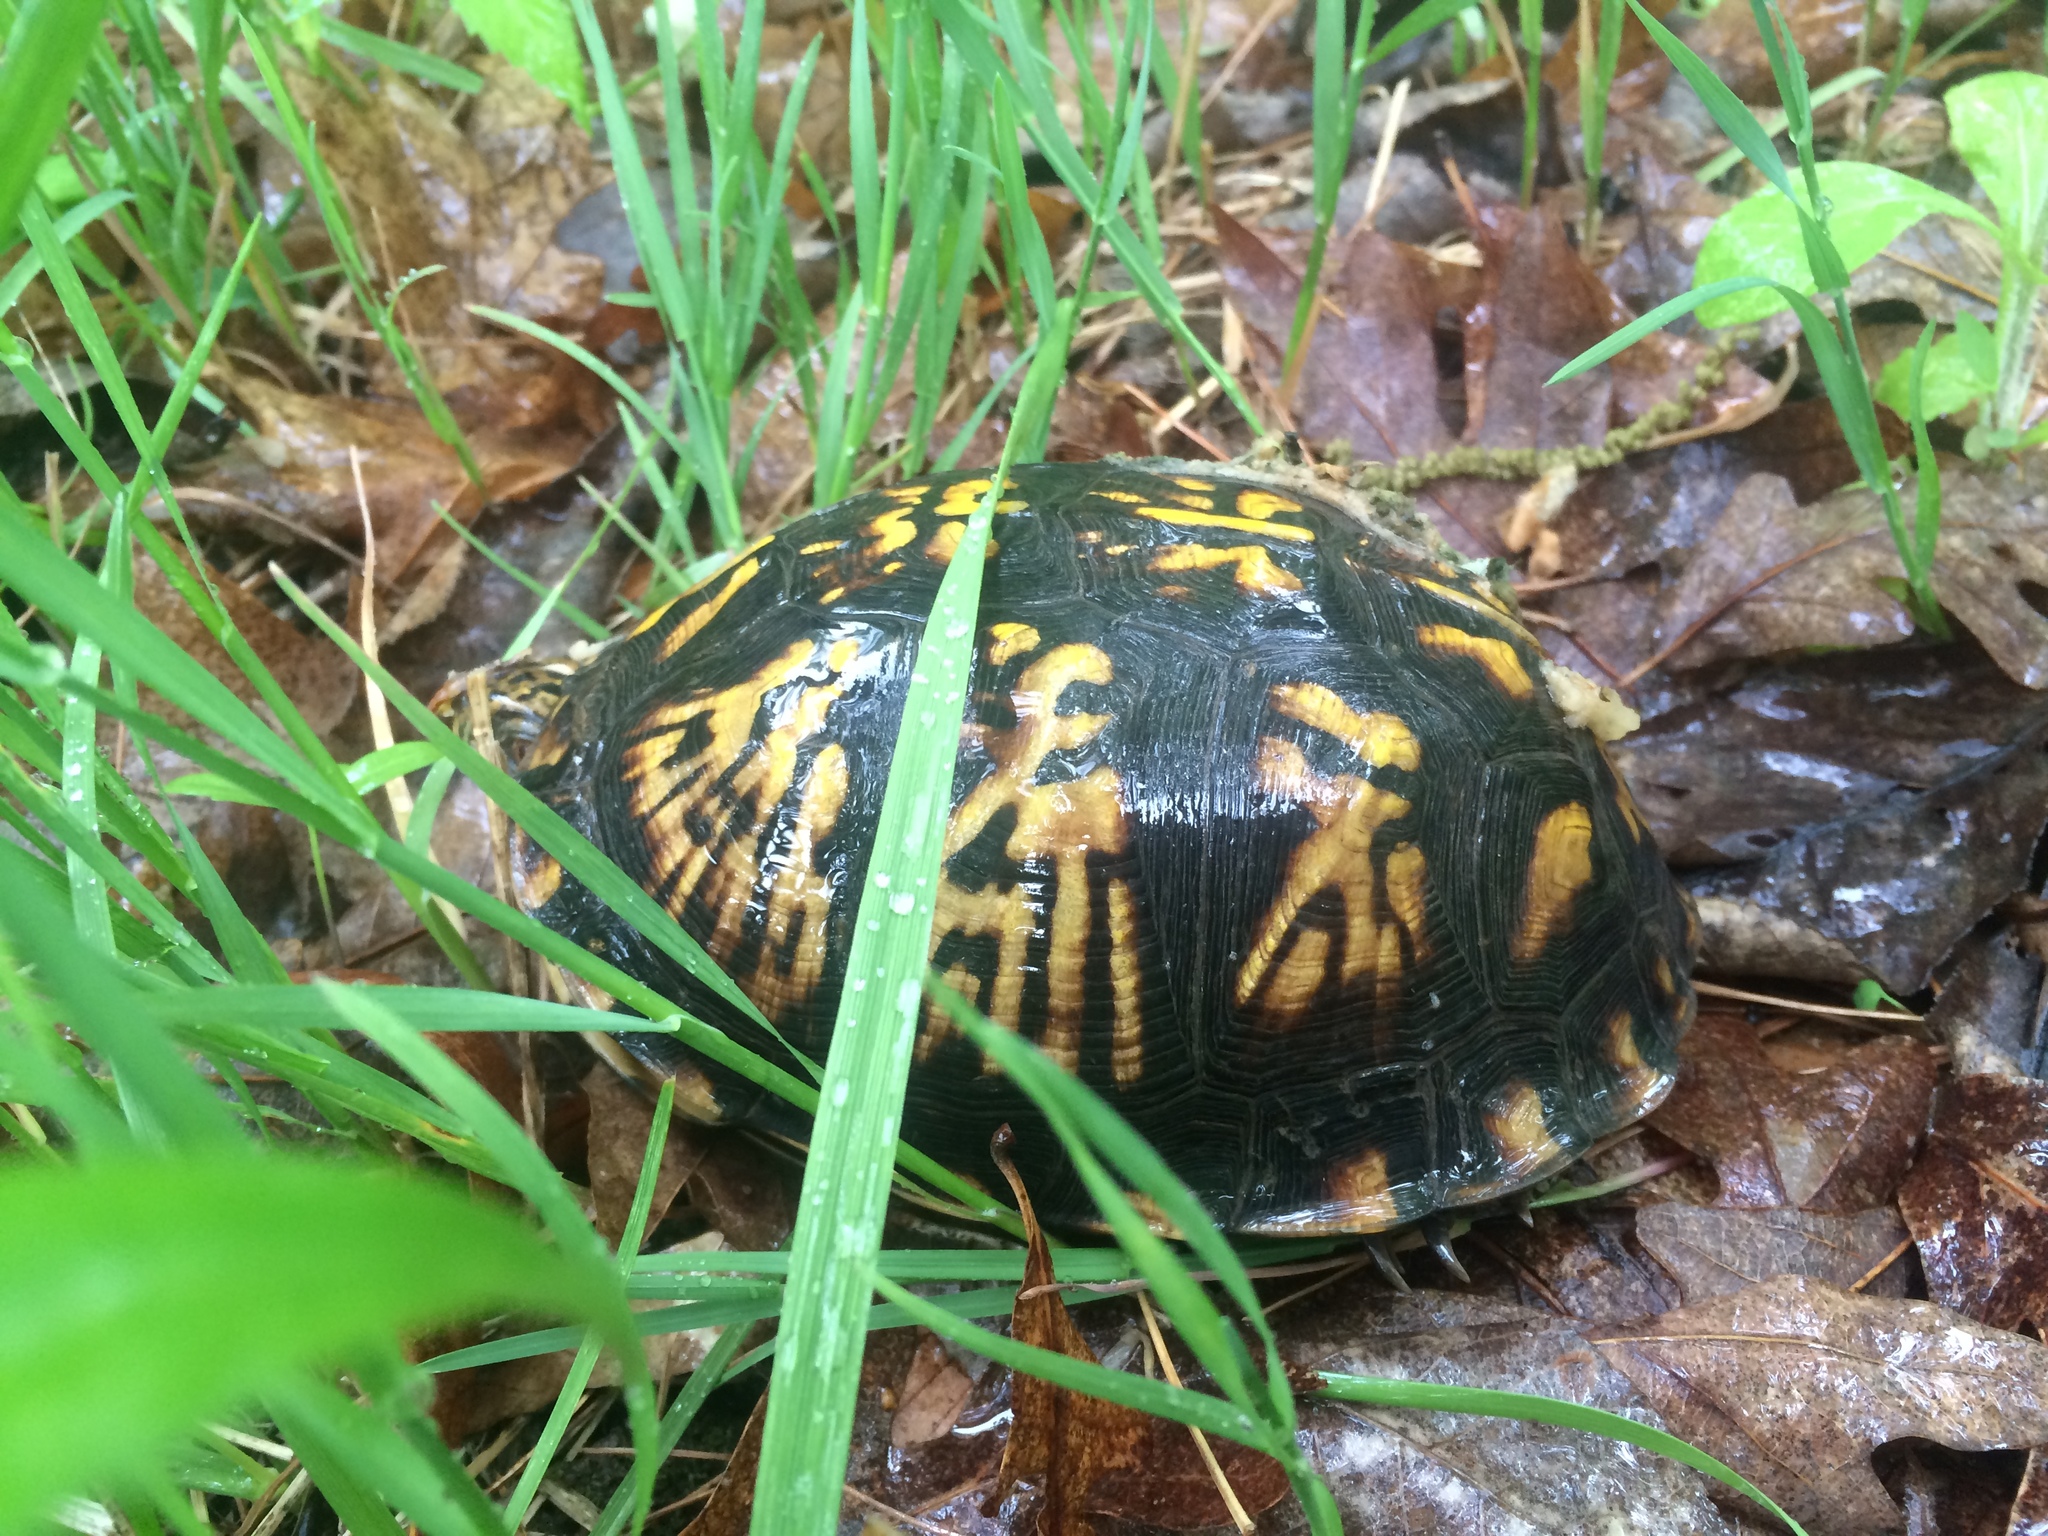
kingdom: Animalia
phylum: Chordata
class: Testudines
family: Emydidae
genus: Terrapene
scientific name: Terrapene carolina
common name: Common box turtle
